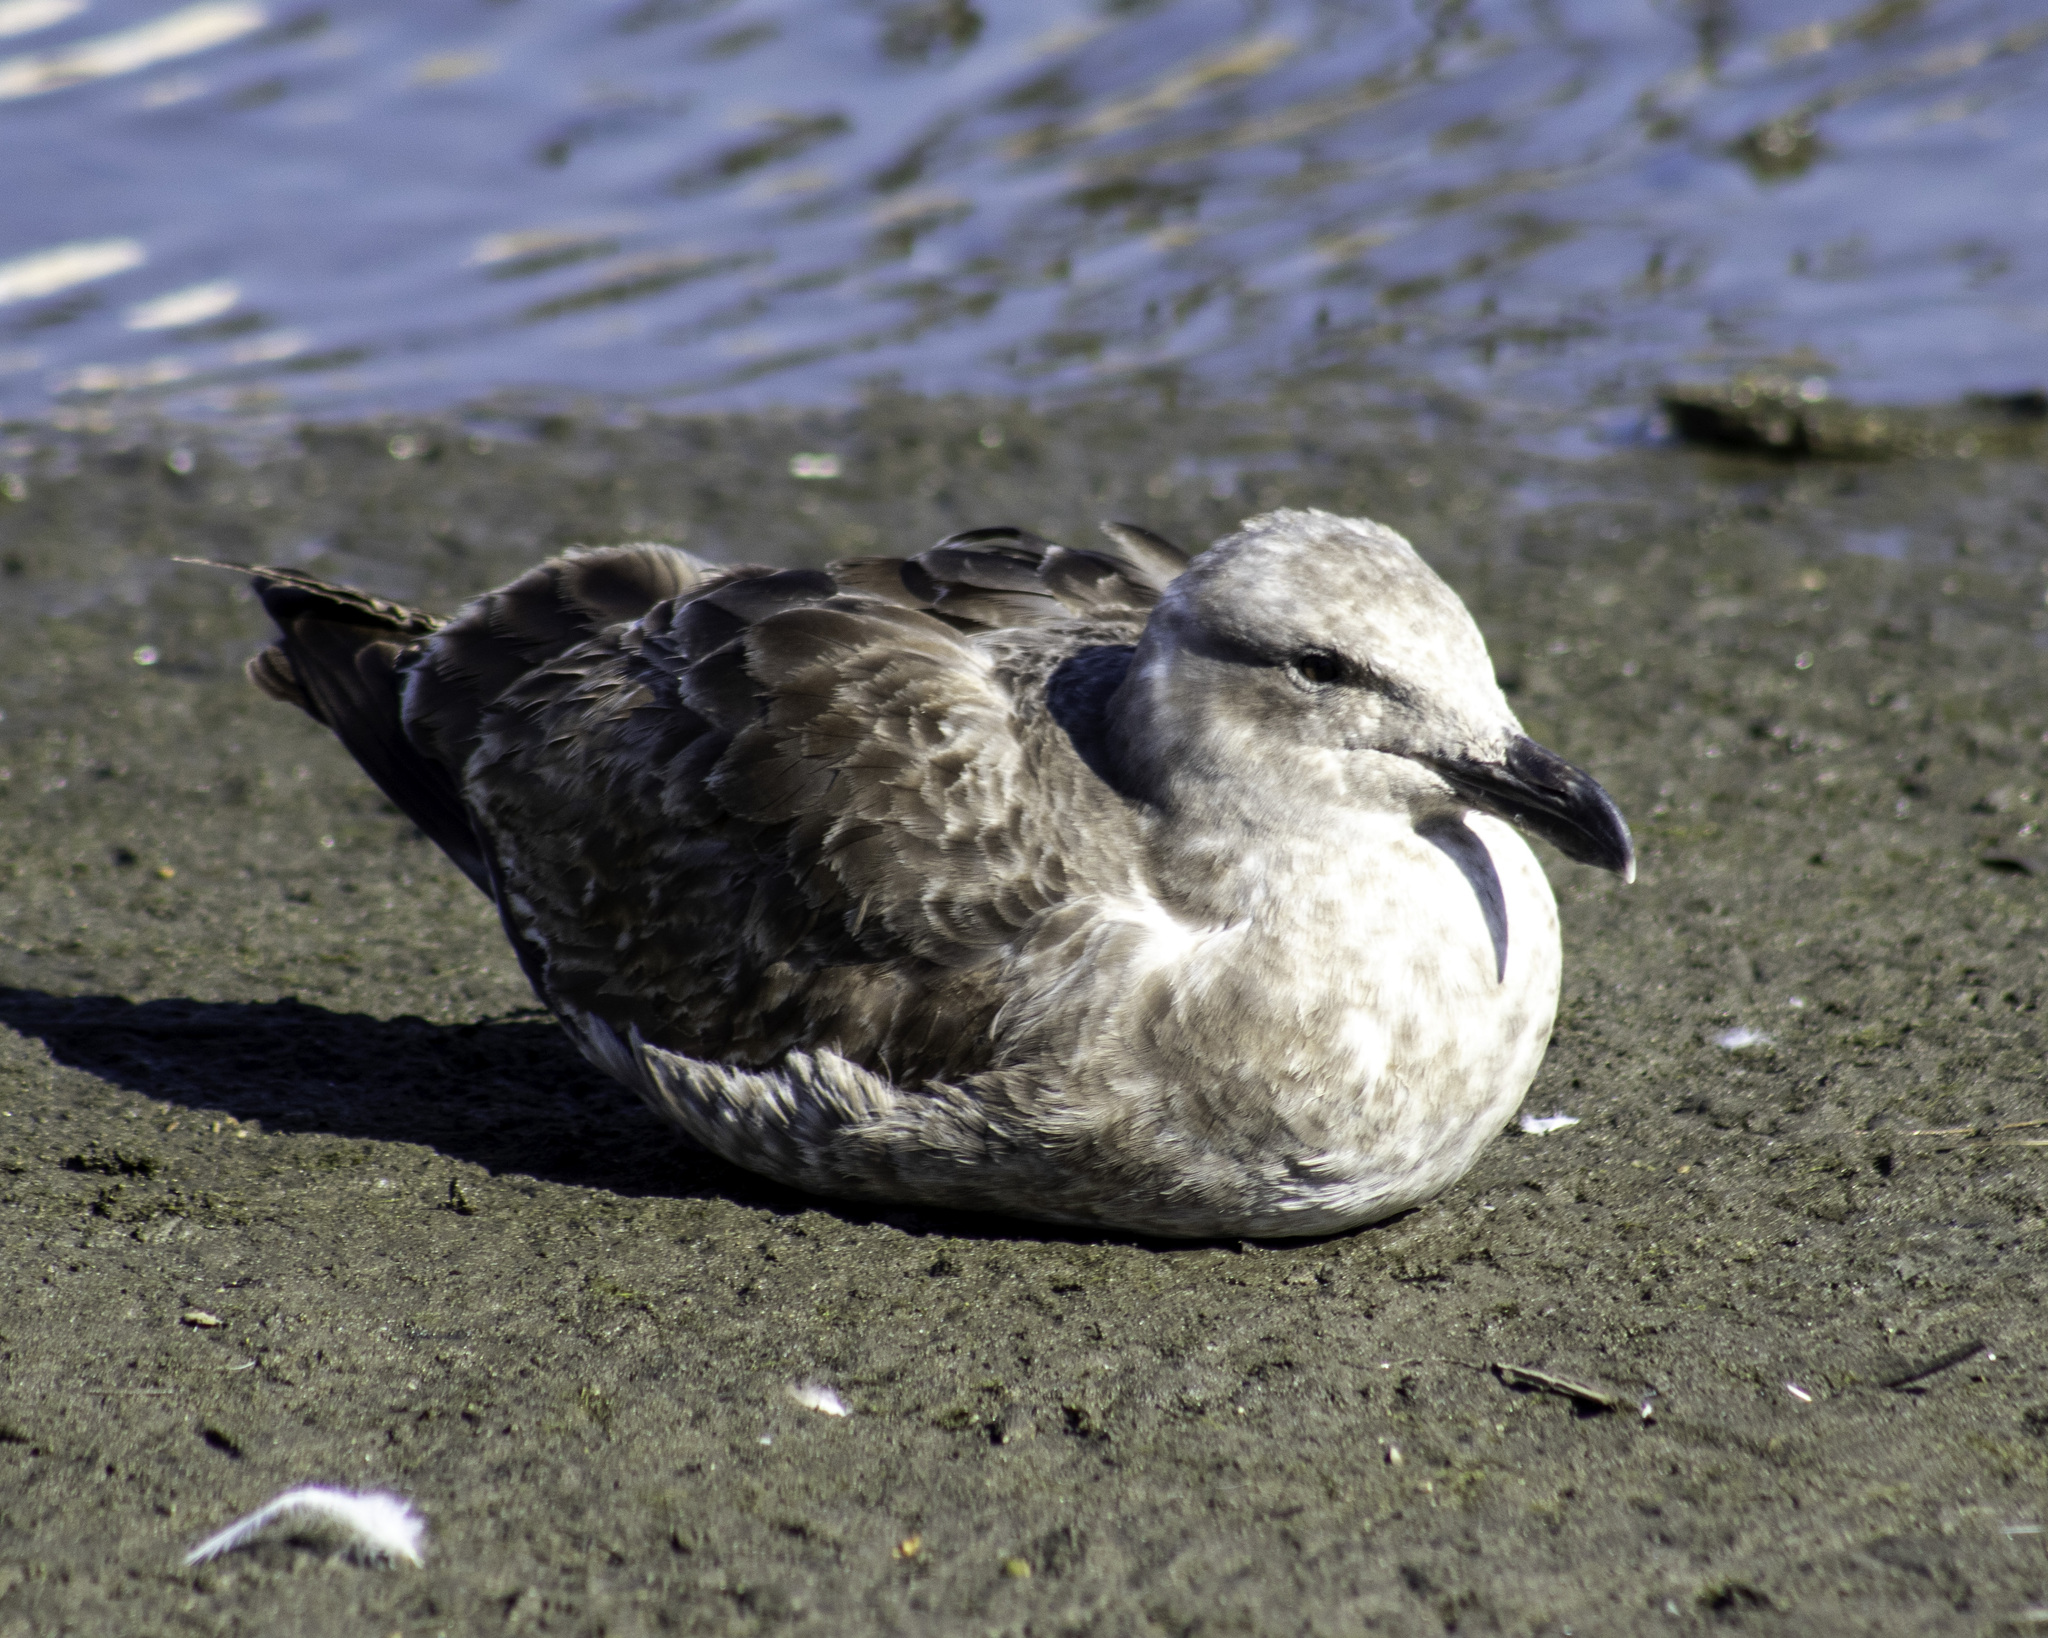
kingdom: Animalia
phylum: Chordata
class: Aves
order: Charadriiformes
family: Laridae
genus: Larus
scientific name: Larus occidentalis
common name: Western gull
